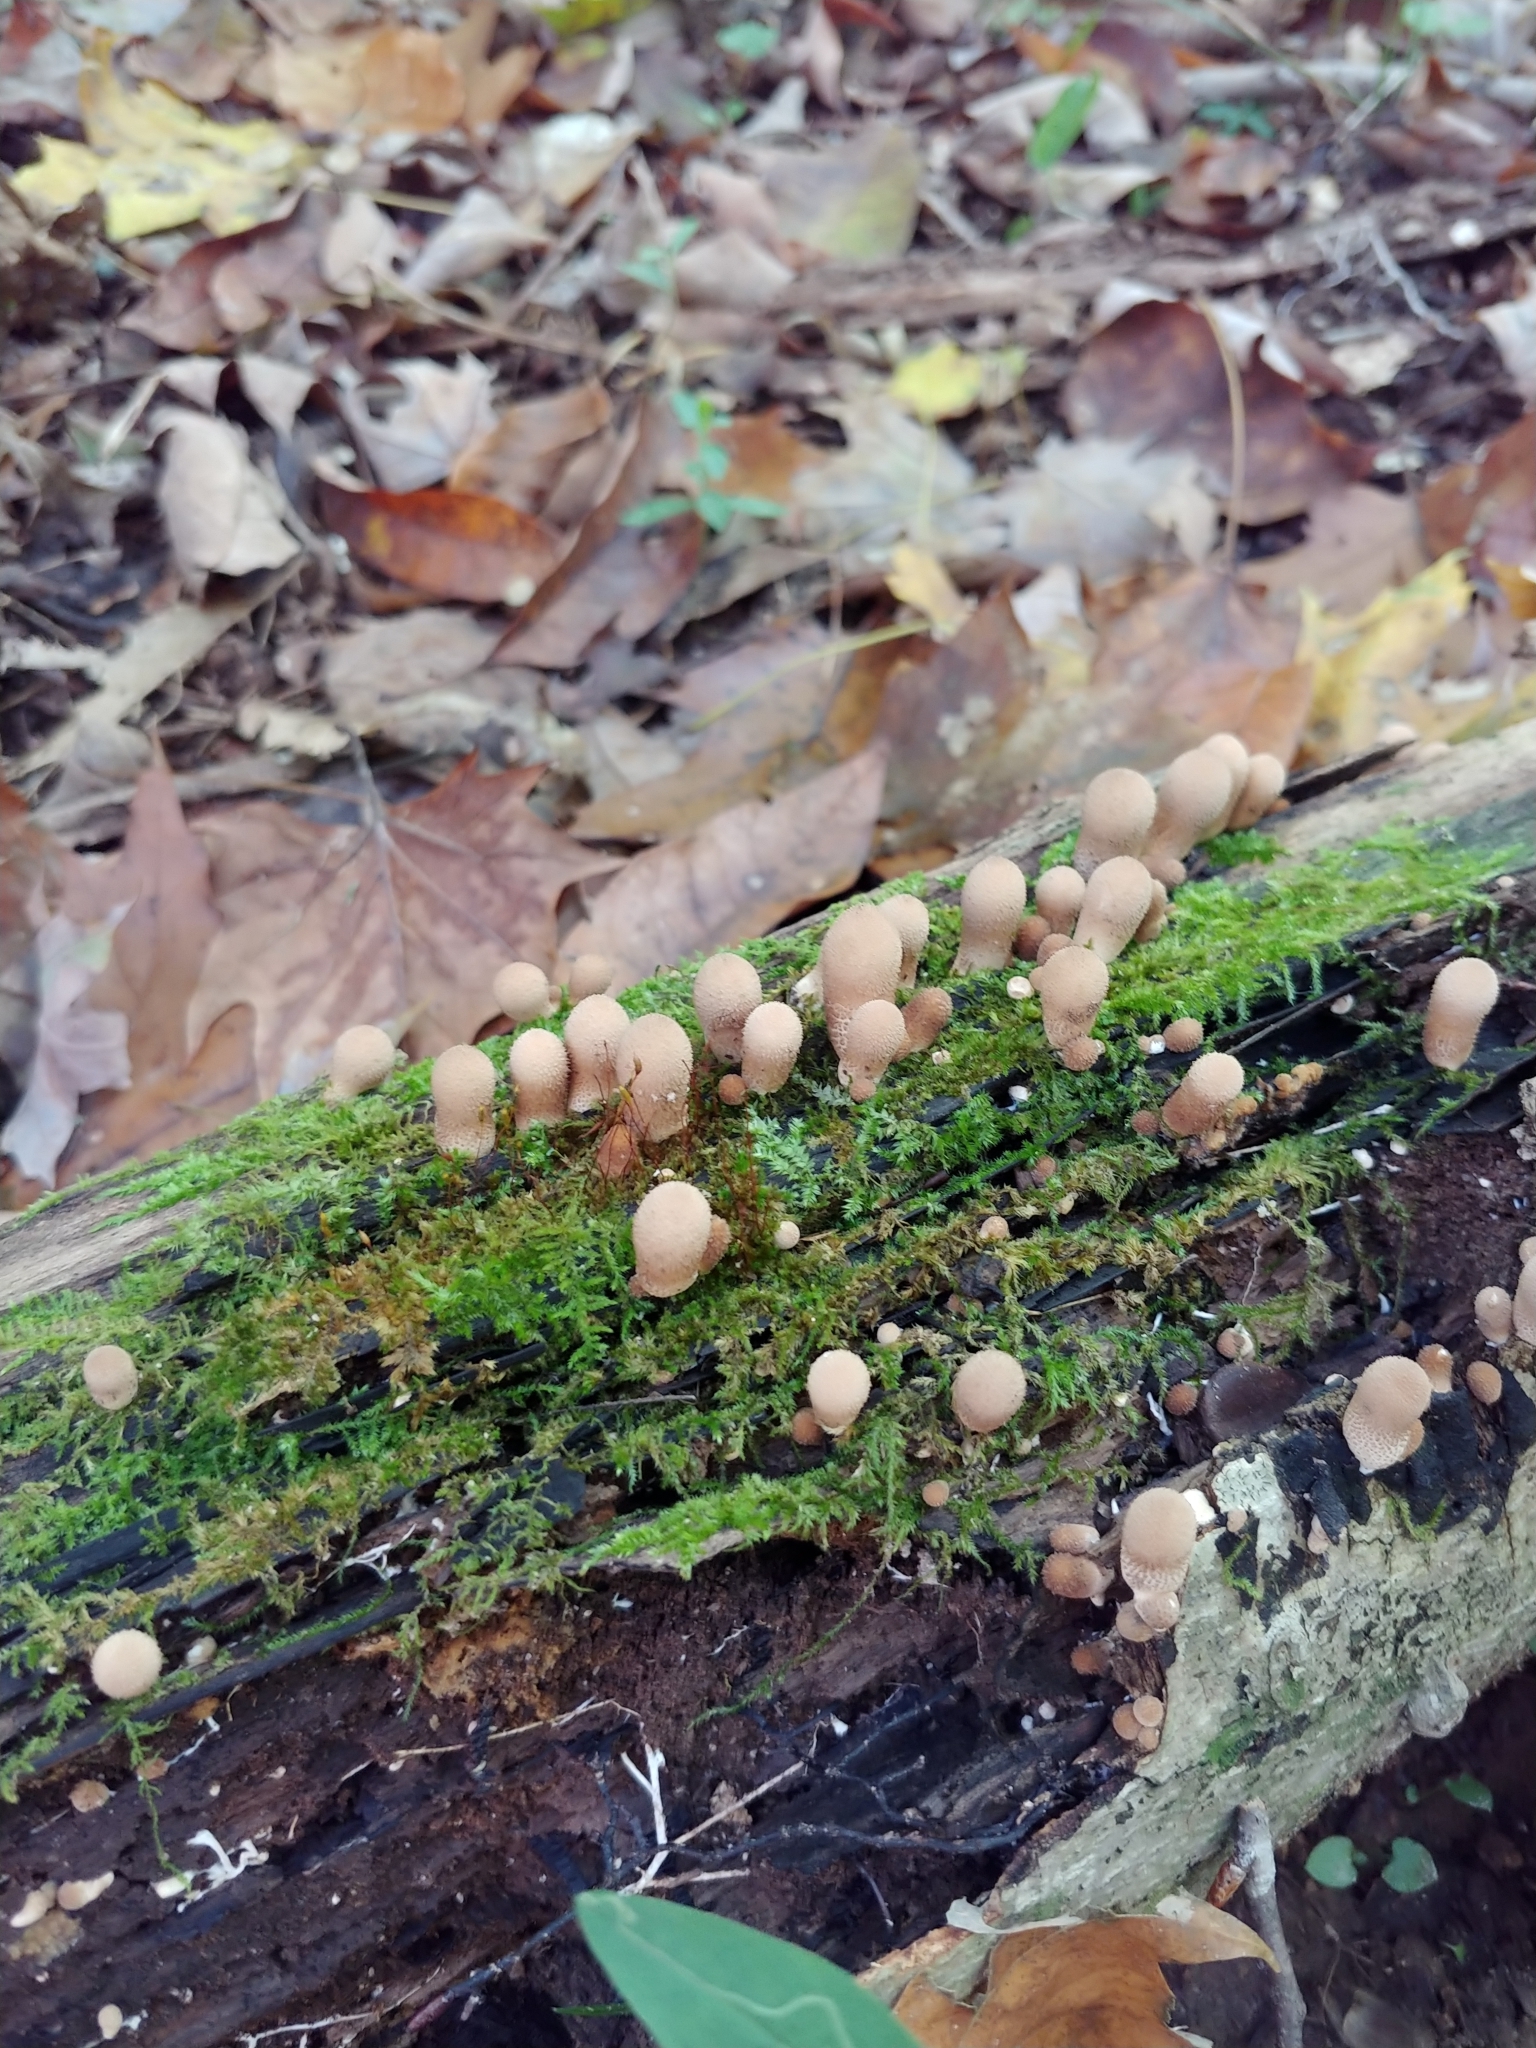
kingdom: Fungi
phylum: Basidiomycota
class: Agaricomycetes
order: Agaricales
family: Lycoperdaceae
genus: Apioperdon
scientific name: Apioperdon pyriforme
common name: Pear-shaped puffball
